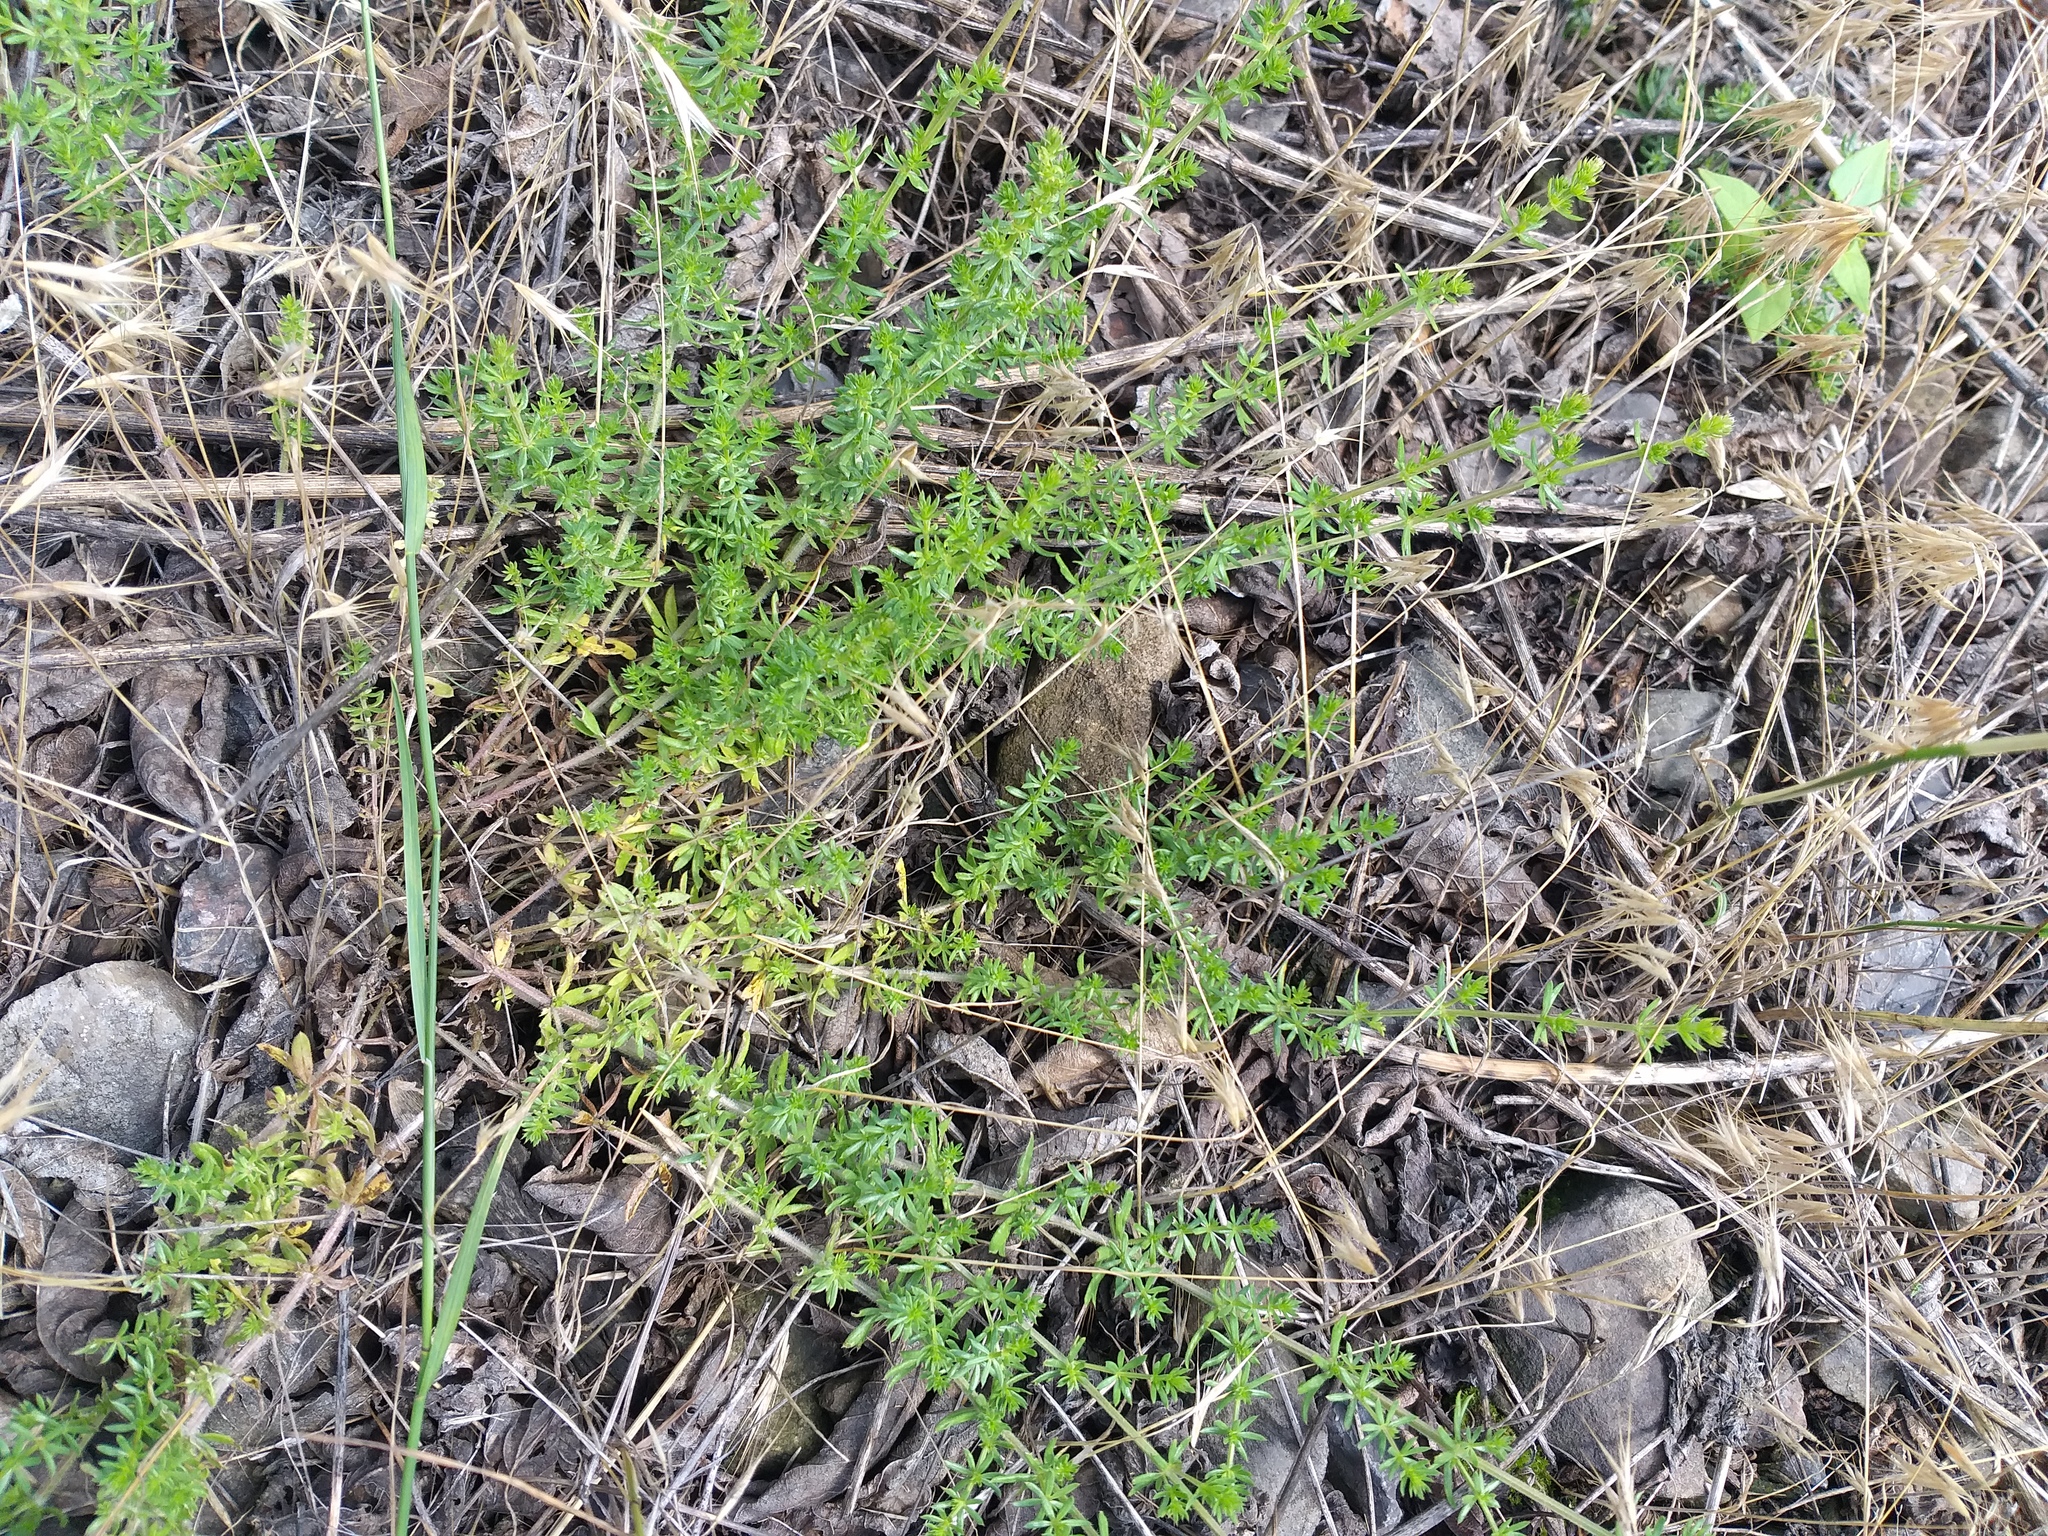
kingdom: Plantae
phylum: Tracheophyta
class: Magnoliopsida
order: Gentianales
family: Rubiaceae
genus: Galium
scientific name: Galium humifusum
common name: Spreading bedstraw
